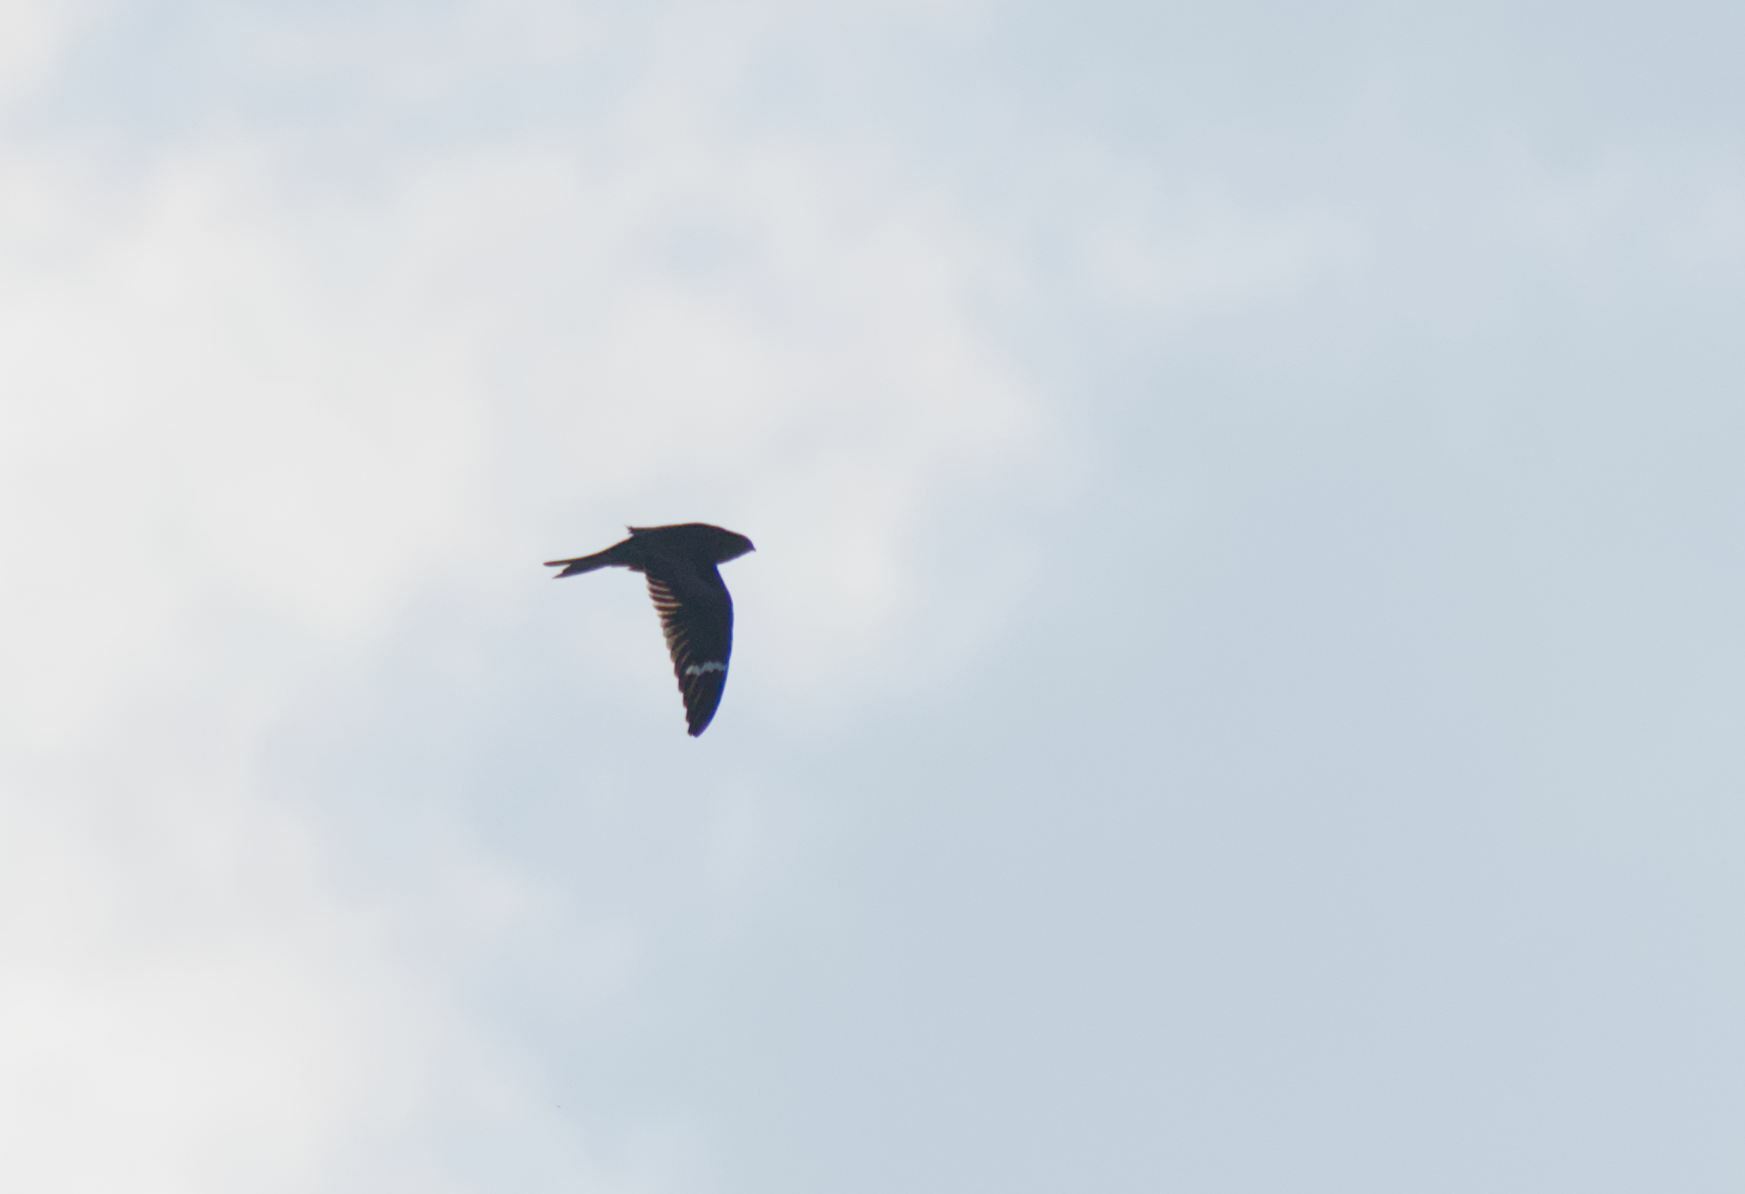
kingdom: Animalia
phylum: Chordata
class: Aves
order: Caprimulgiformes
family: Caprimulgidae
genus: Chordeiles
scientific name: Chordeiles minor
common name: Common nighthawk
